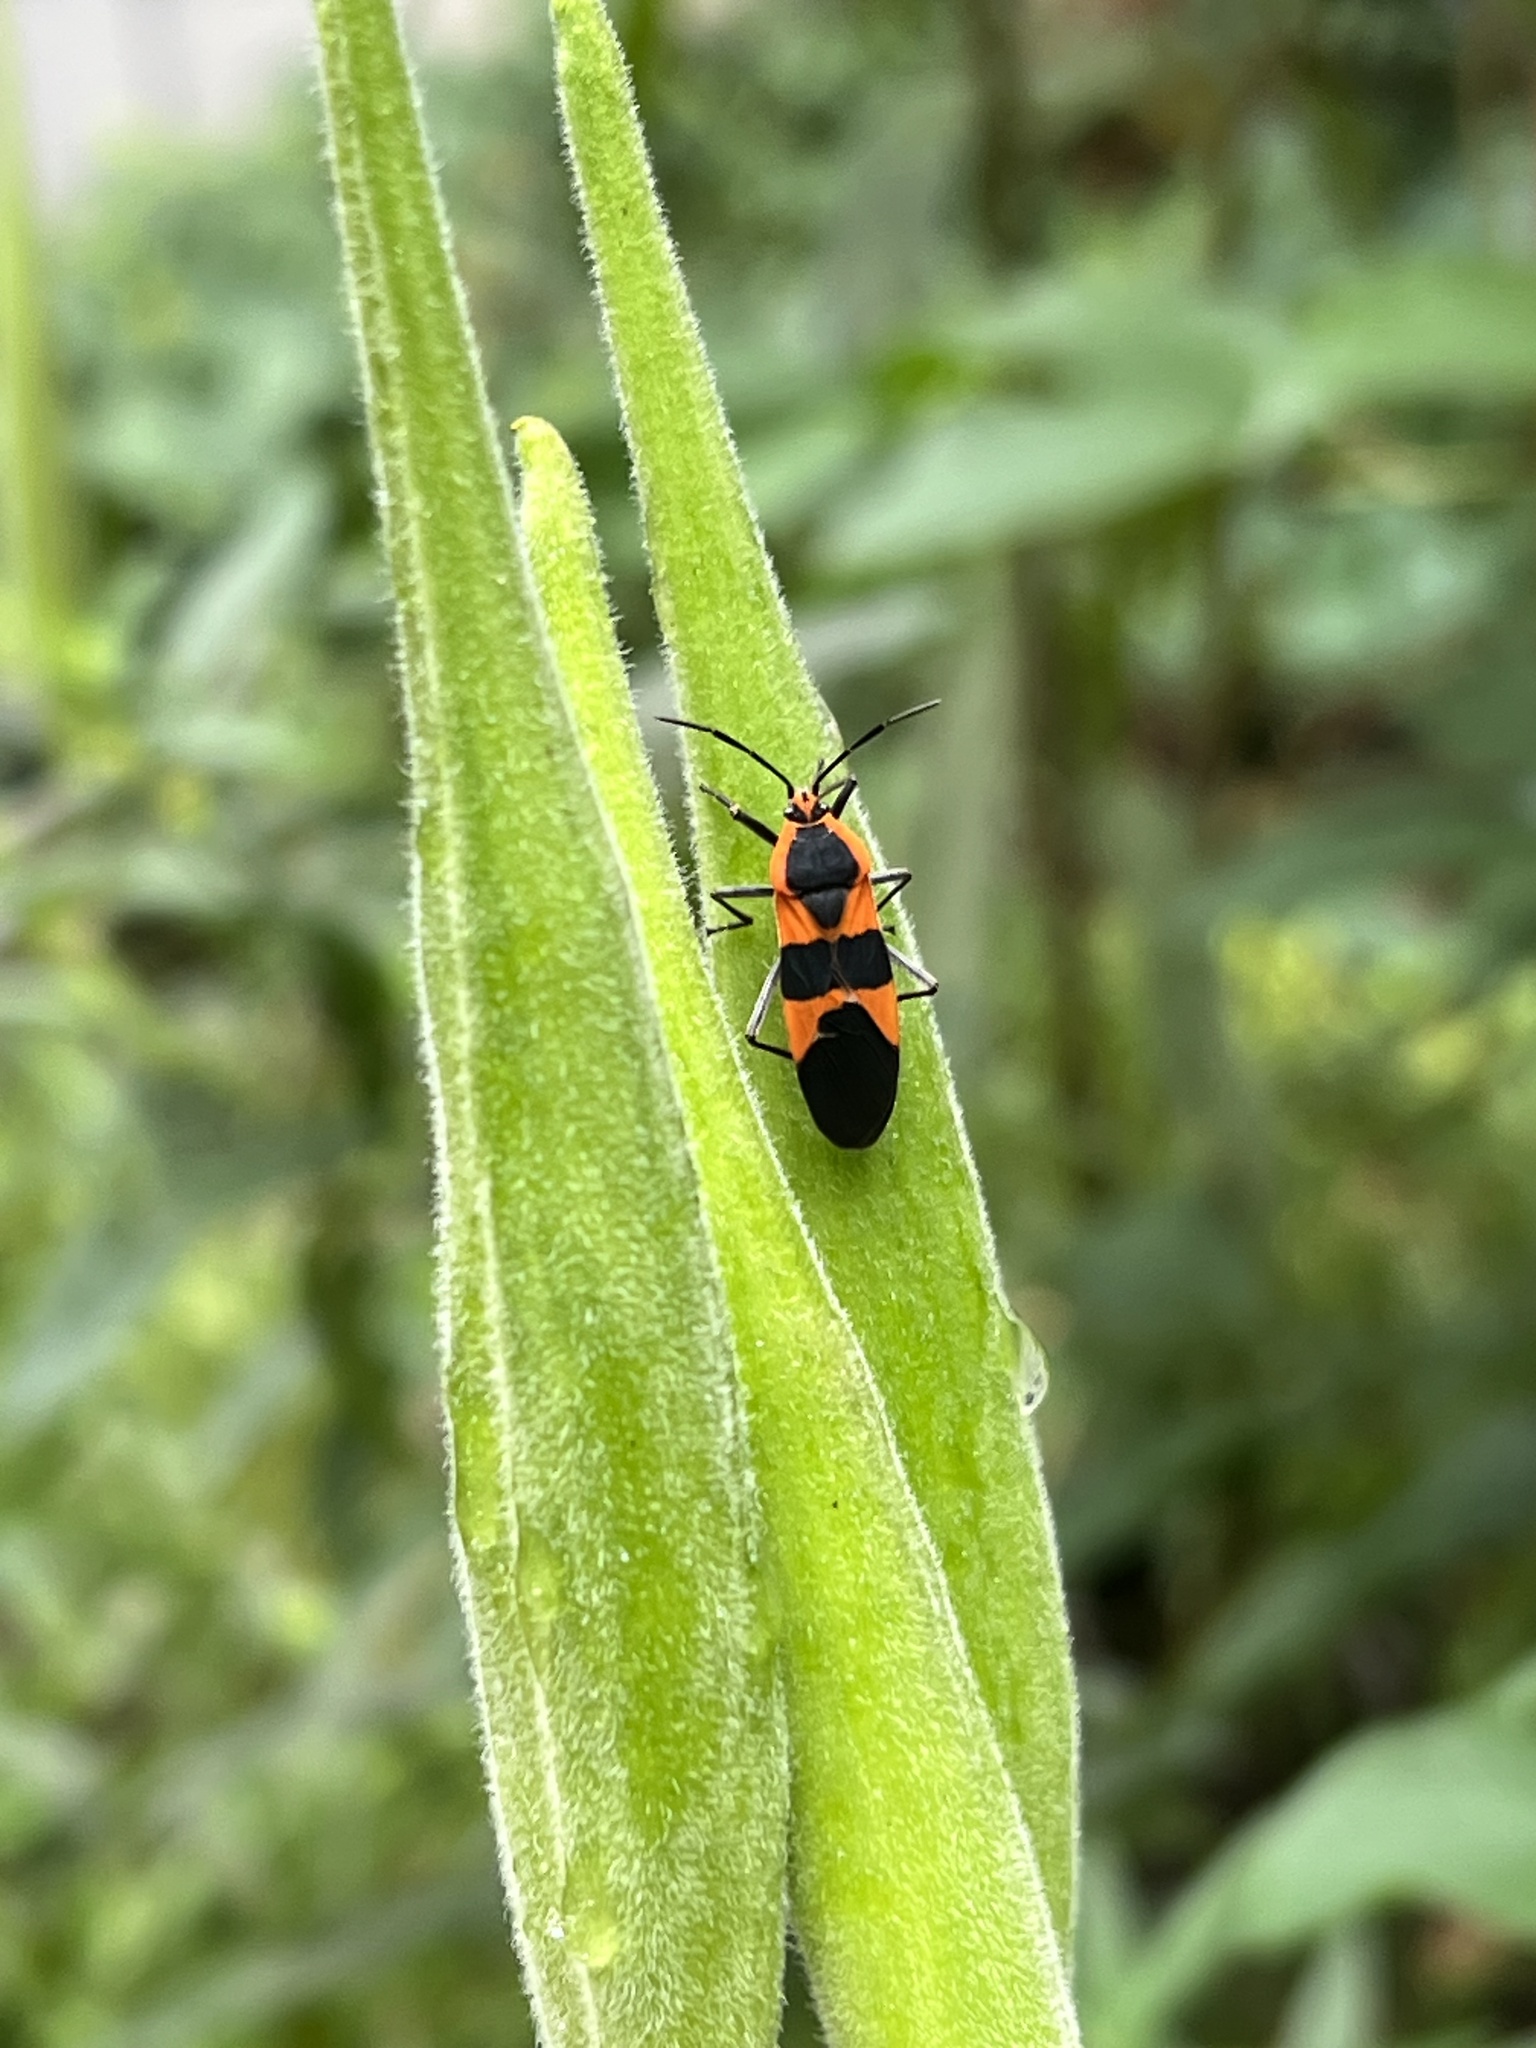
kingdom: Animalia
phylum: Arthropoda
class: Insecta
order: Hemiptera
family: Lygaeidae
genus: Oncopeltus
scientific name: Oncopeltus fasciatus
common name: Large milkweed bug
